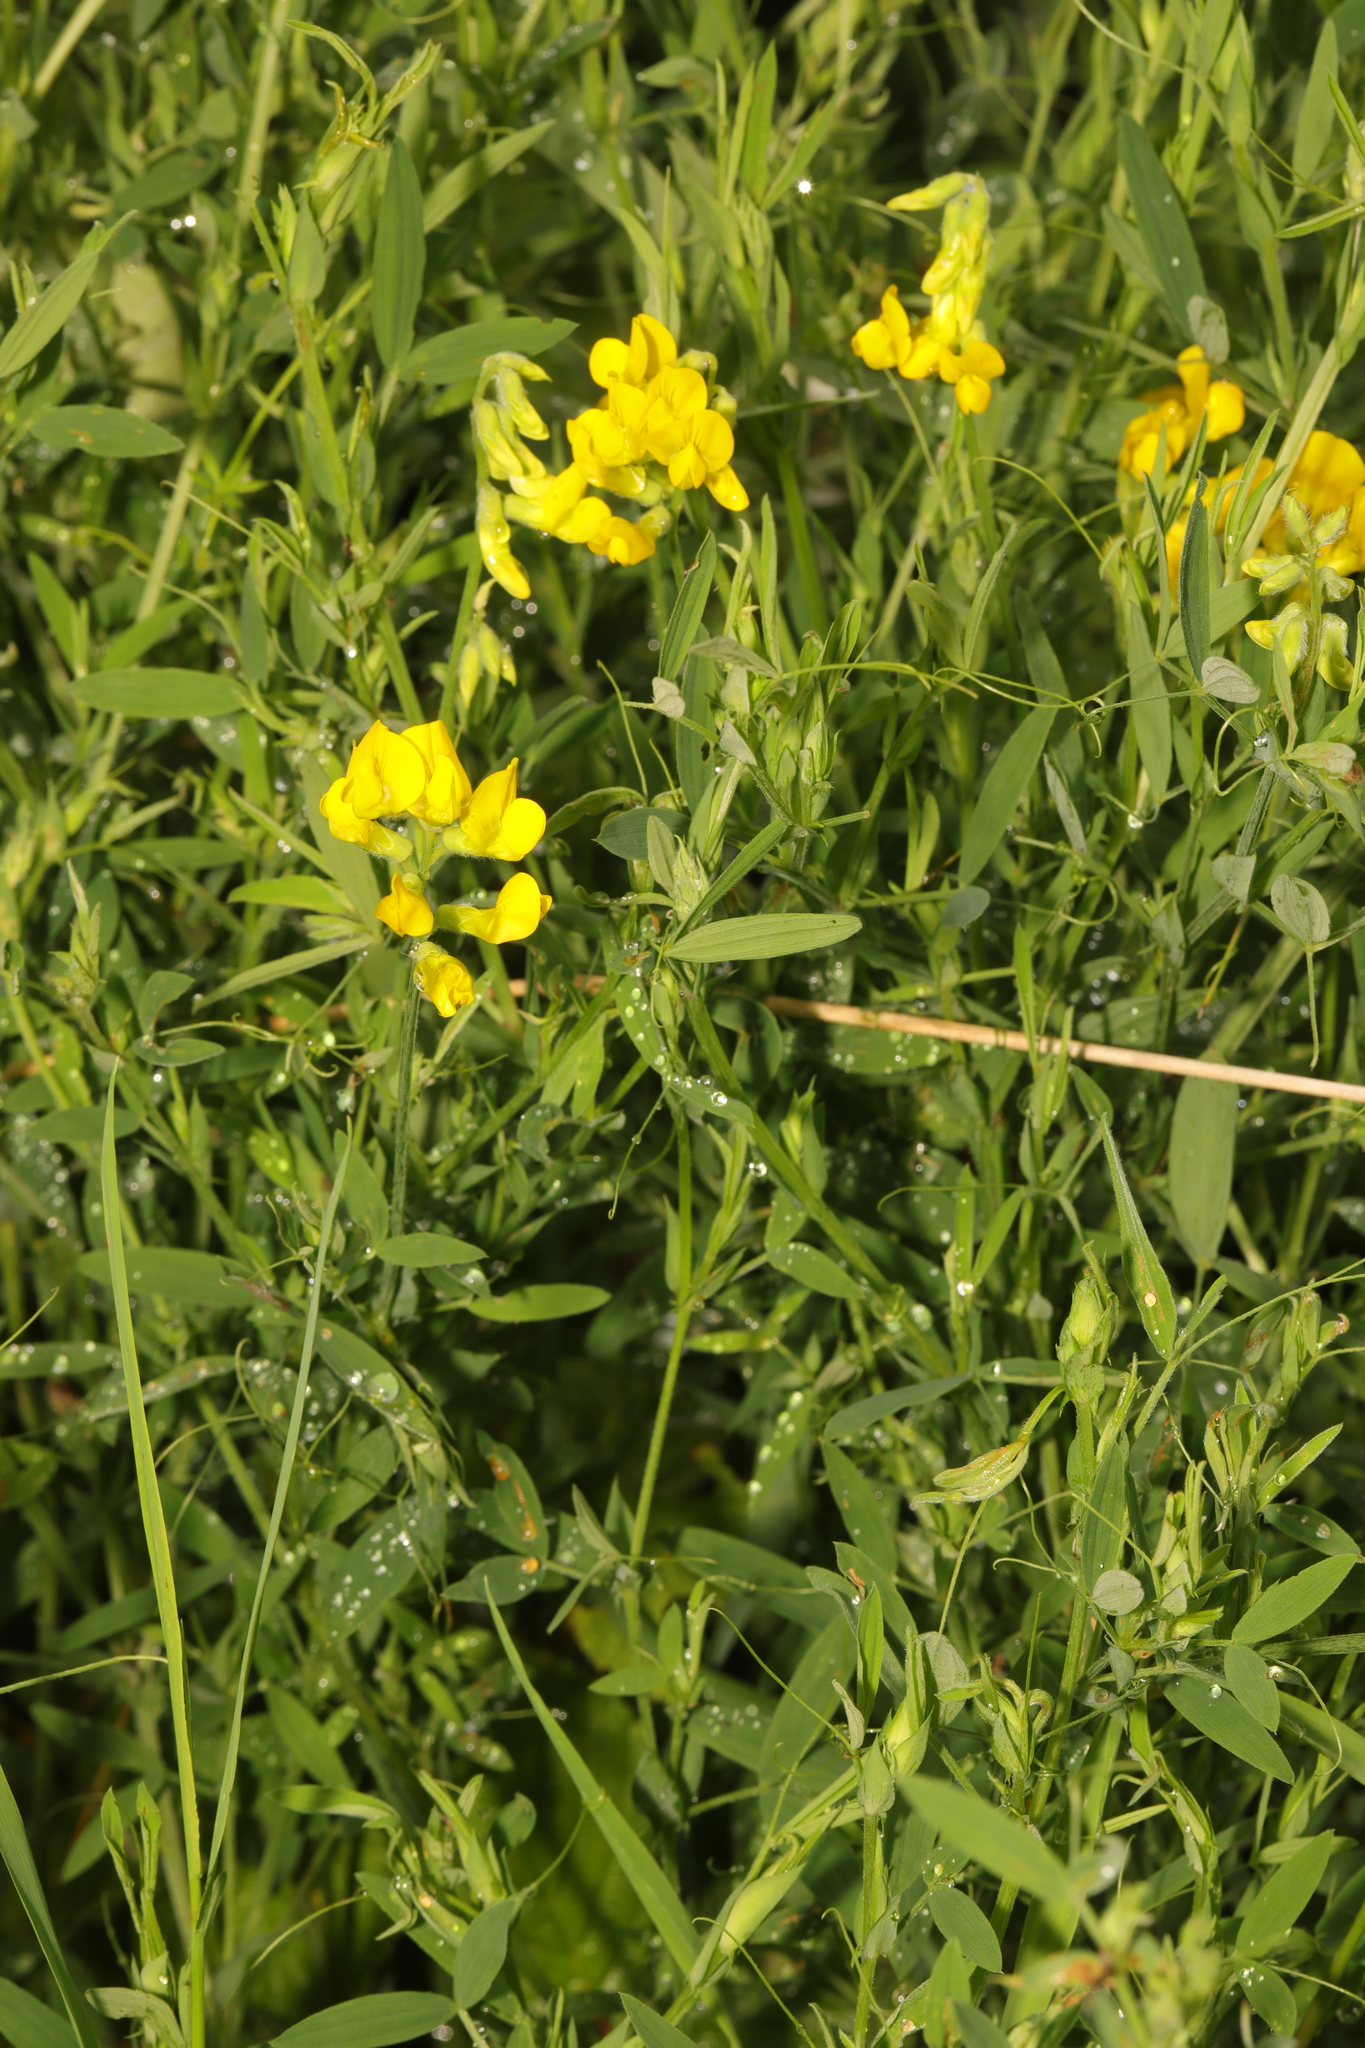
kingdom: Plantae
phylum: Tracheophyta
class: Magnoliopsida
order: Fabales
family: Fabaceae
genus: Lathyrus
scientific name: Lathyrus pratensis
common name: Meadow vetchling
